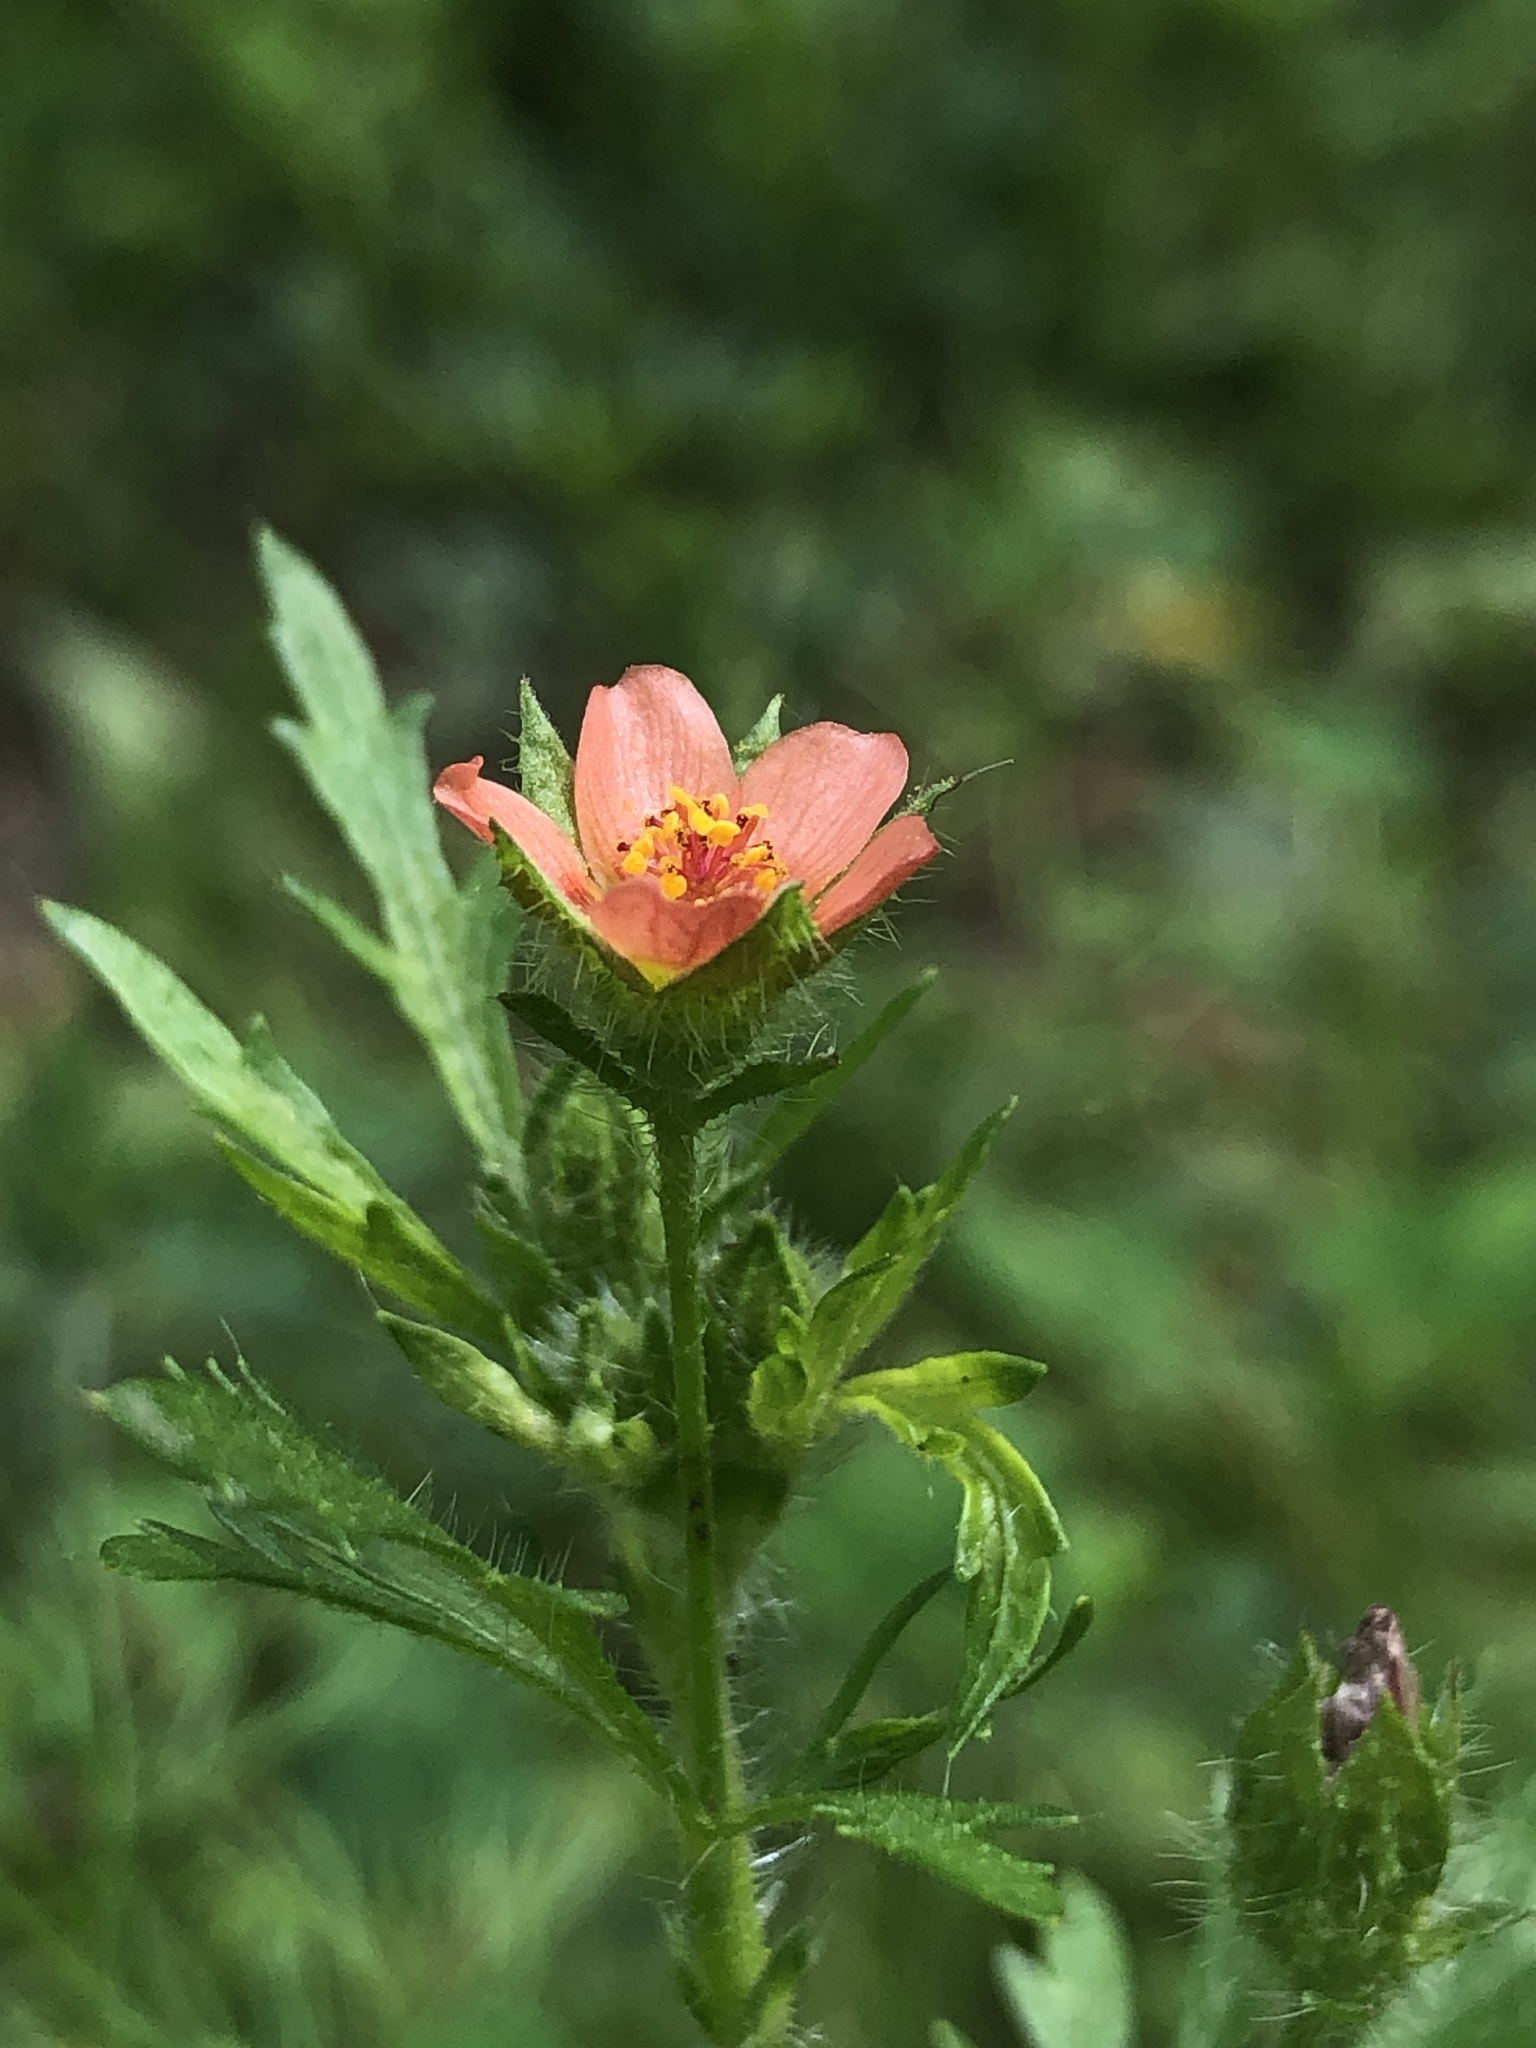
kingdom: Plantae
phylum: Tracheophyta
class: Magnoliopsida
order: Malvales
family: Malvaceae
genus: Modiola
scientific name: Modiola caroliniana
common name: Carolina bristlemallow
